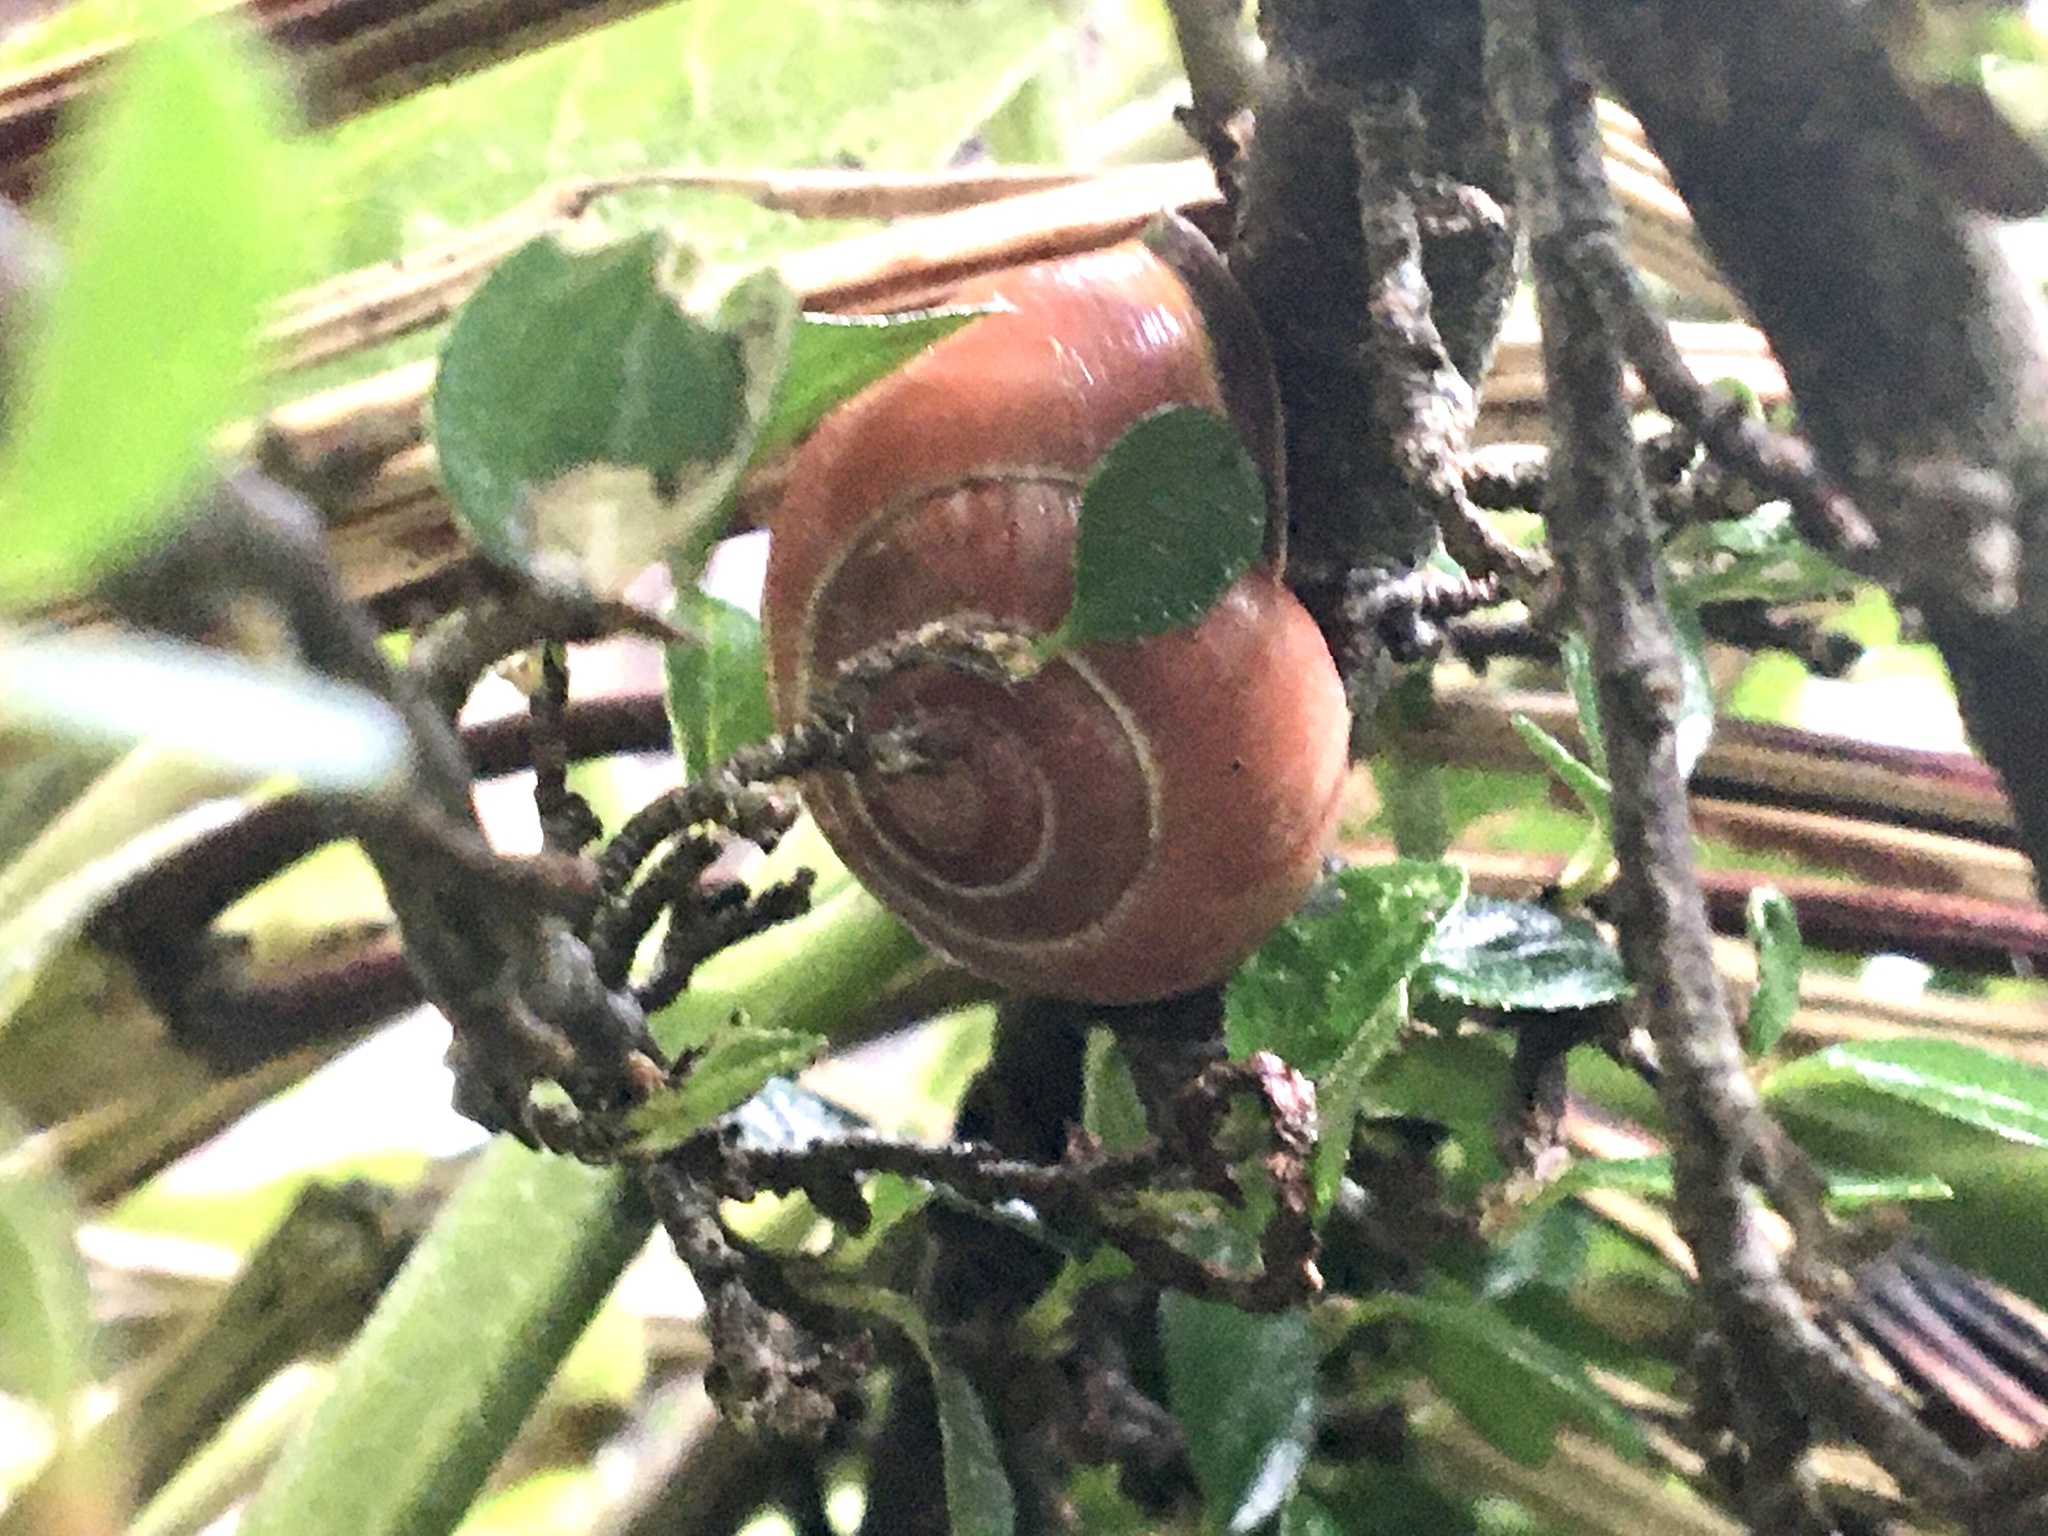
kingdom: Animalia
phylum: Mollusca
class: Gastropoda
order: Stylommatophora
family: Helicidae
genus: Cepaea
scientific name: Cepaea nemoralis
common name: Grovesnail
